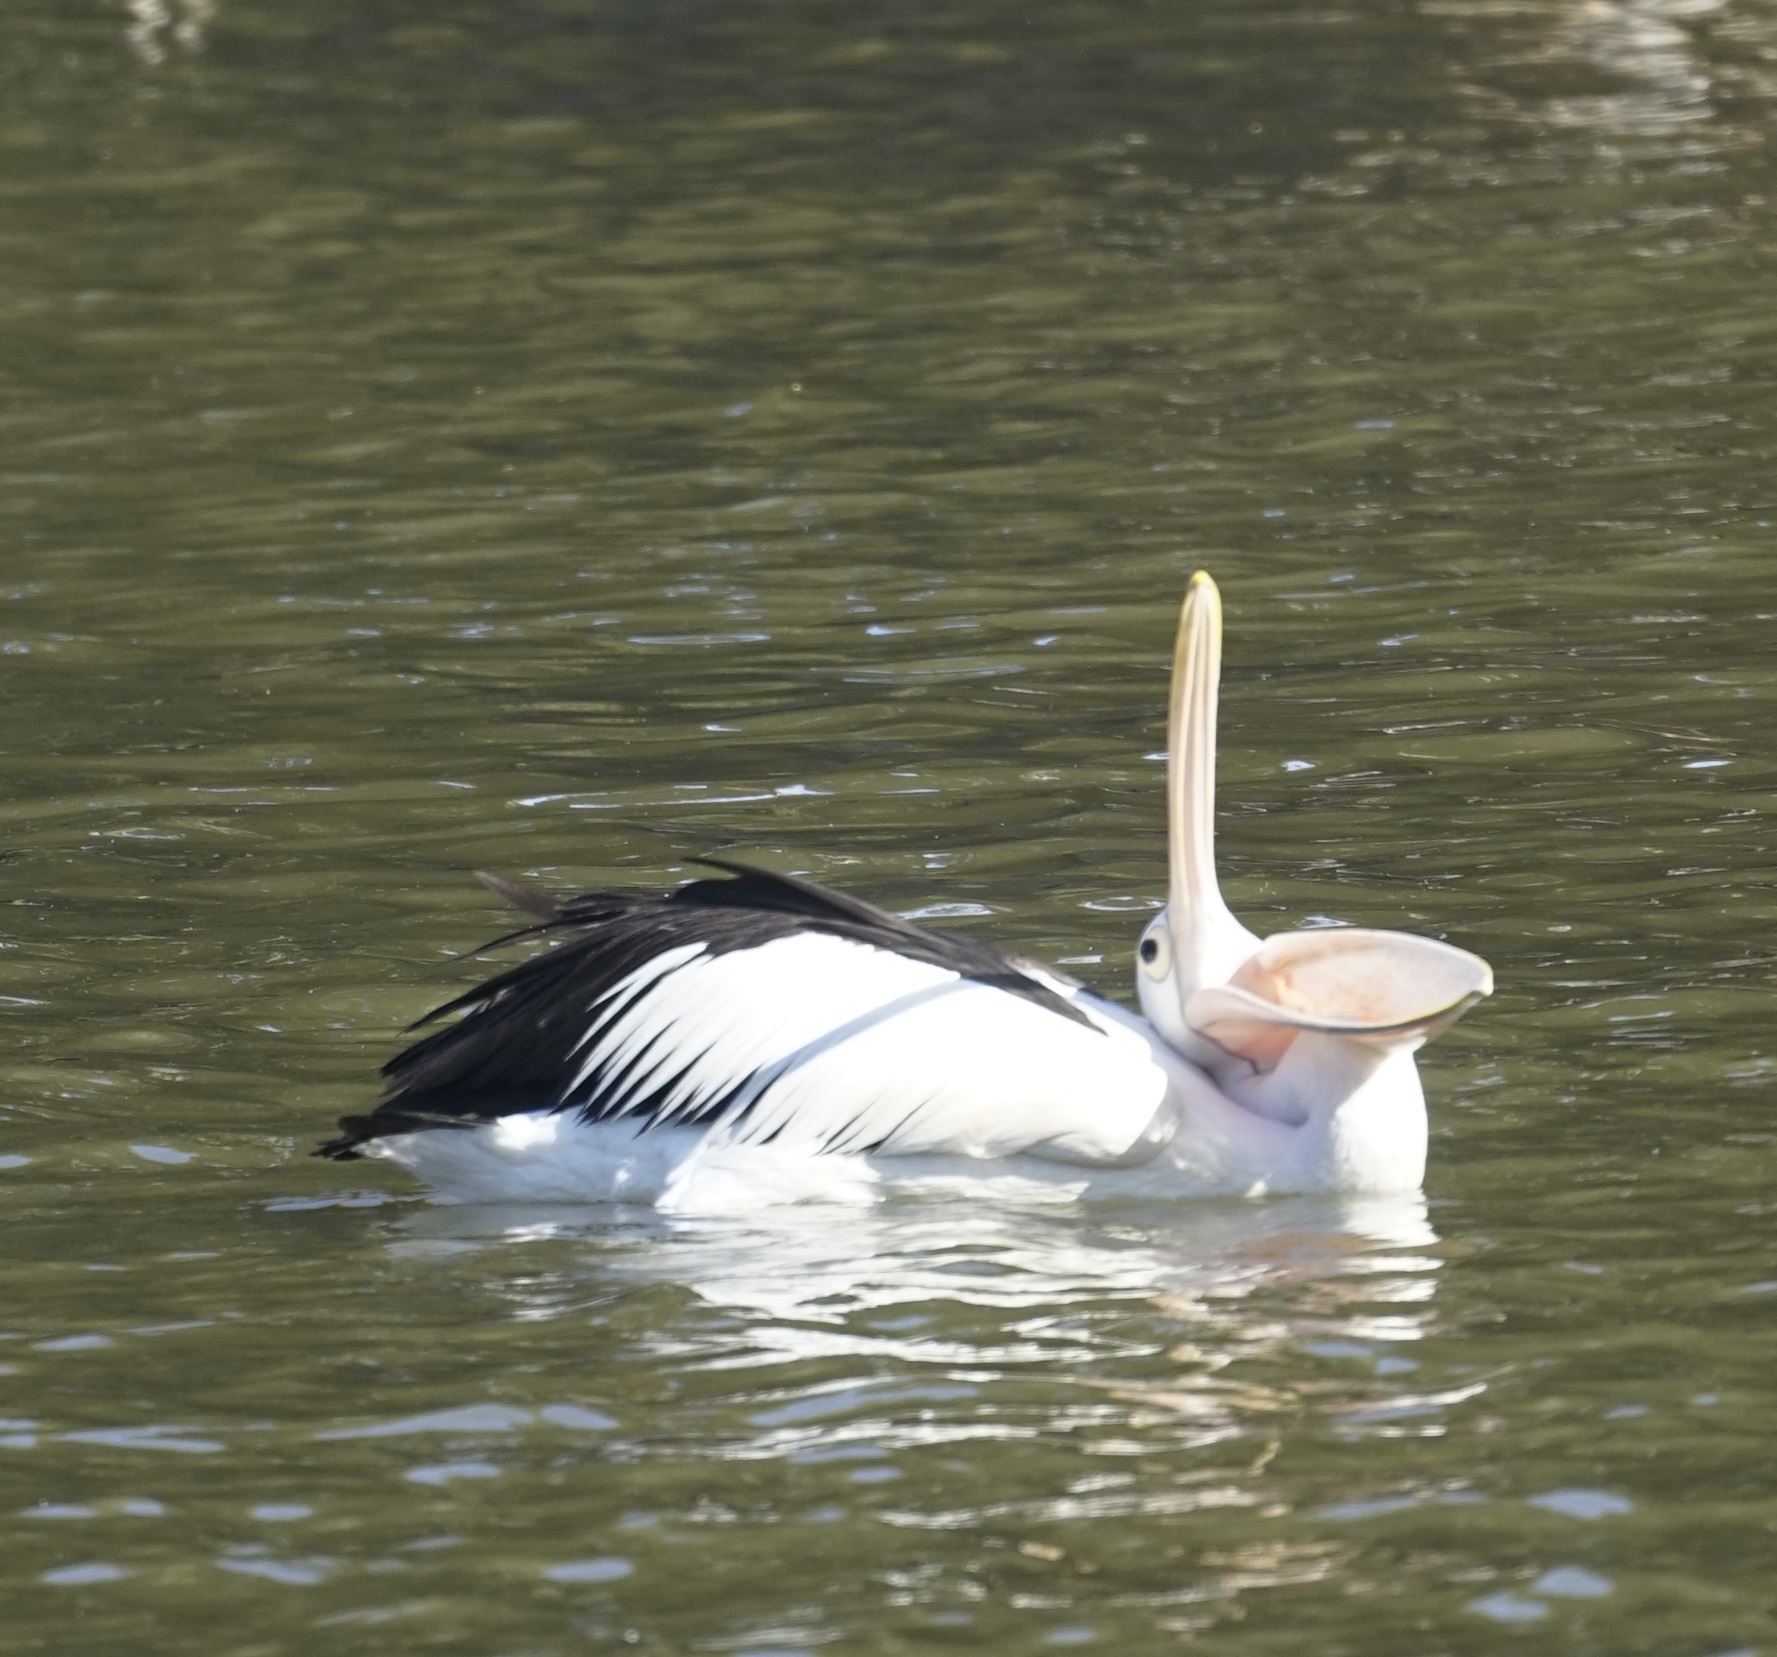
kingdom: Animalia
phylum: Chordata
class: Aves
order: Pelecaniformes
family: Pelecanidae
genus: Pelecanus
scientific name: Pelecanus conspicillatus
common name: Australian pelican
